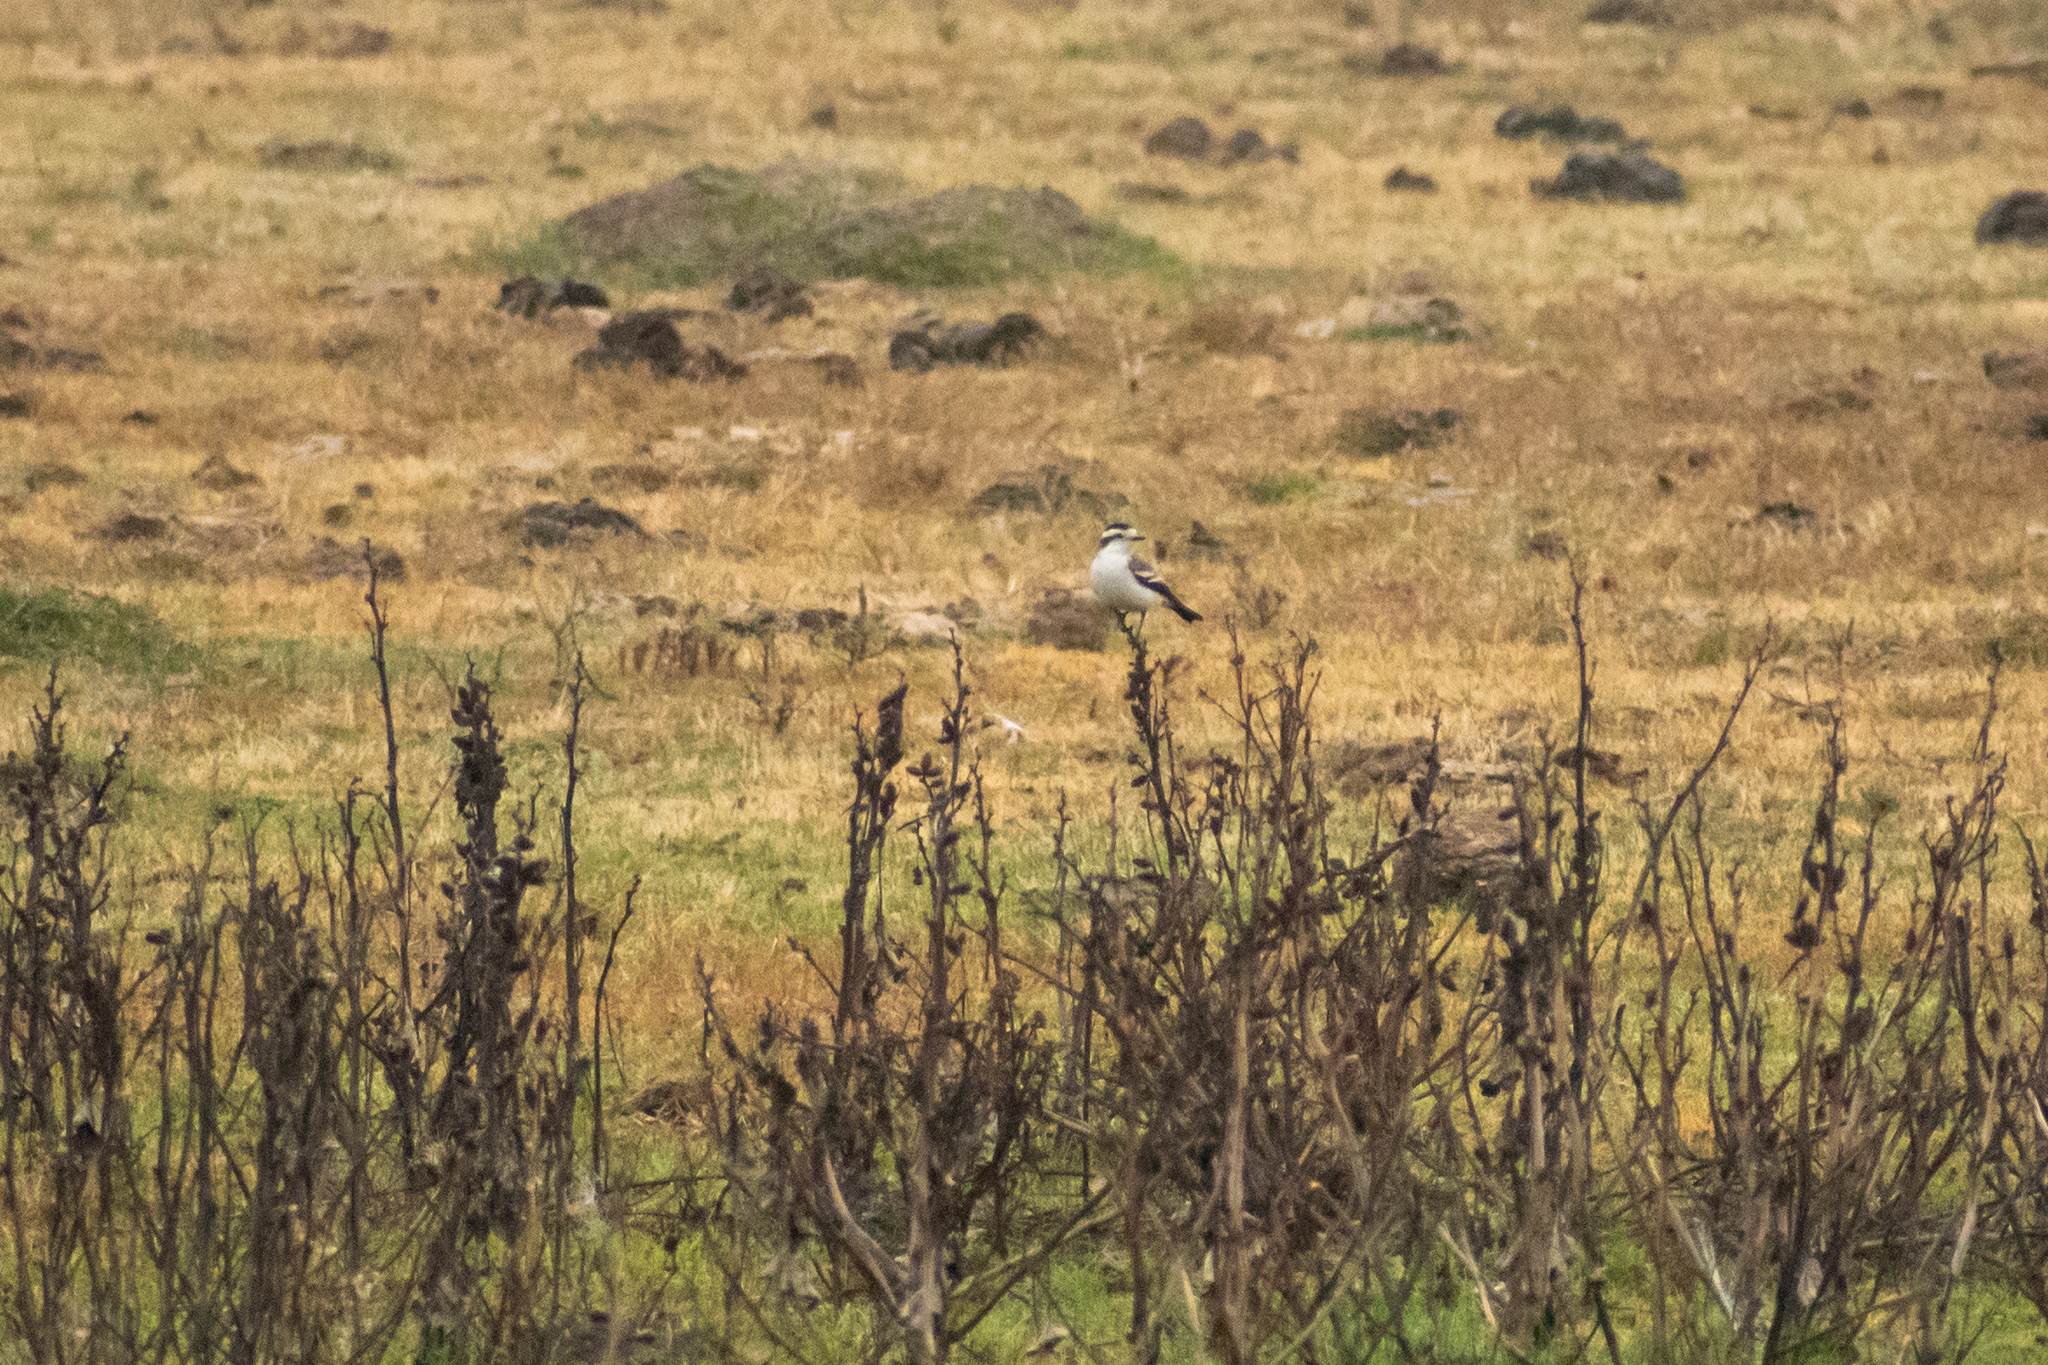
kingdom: Animalia
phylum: Chordata
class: Aves
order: Passeriformes
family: Tyrannidae
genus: Xolmis
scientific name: Xolmis coronatus
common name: Black-crowned monjita
